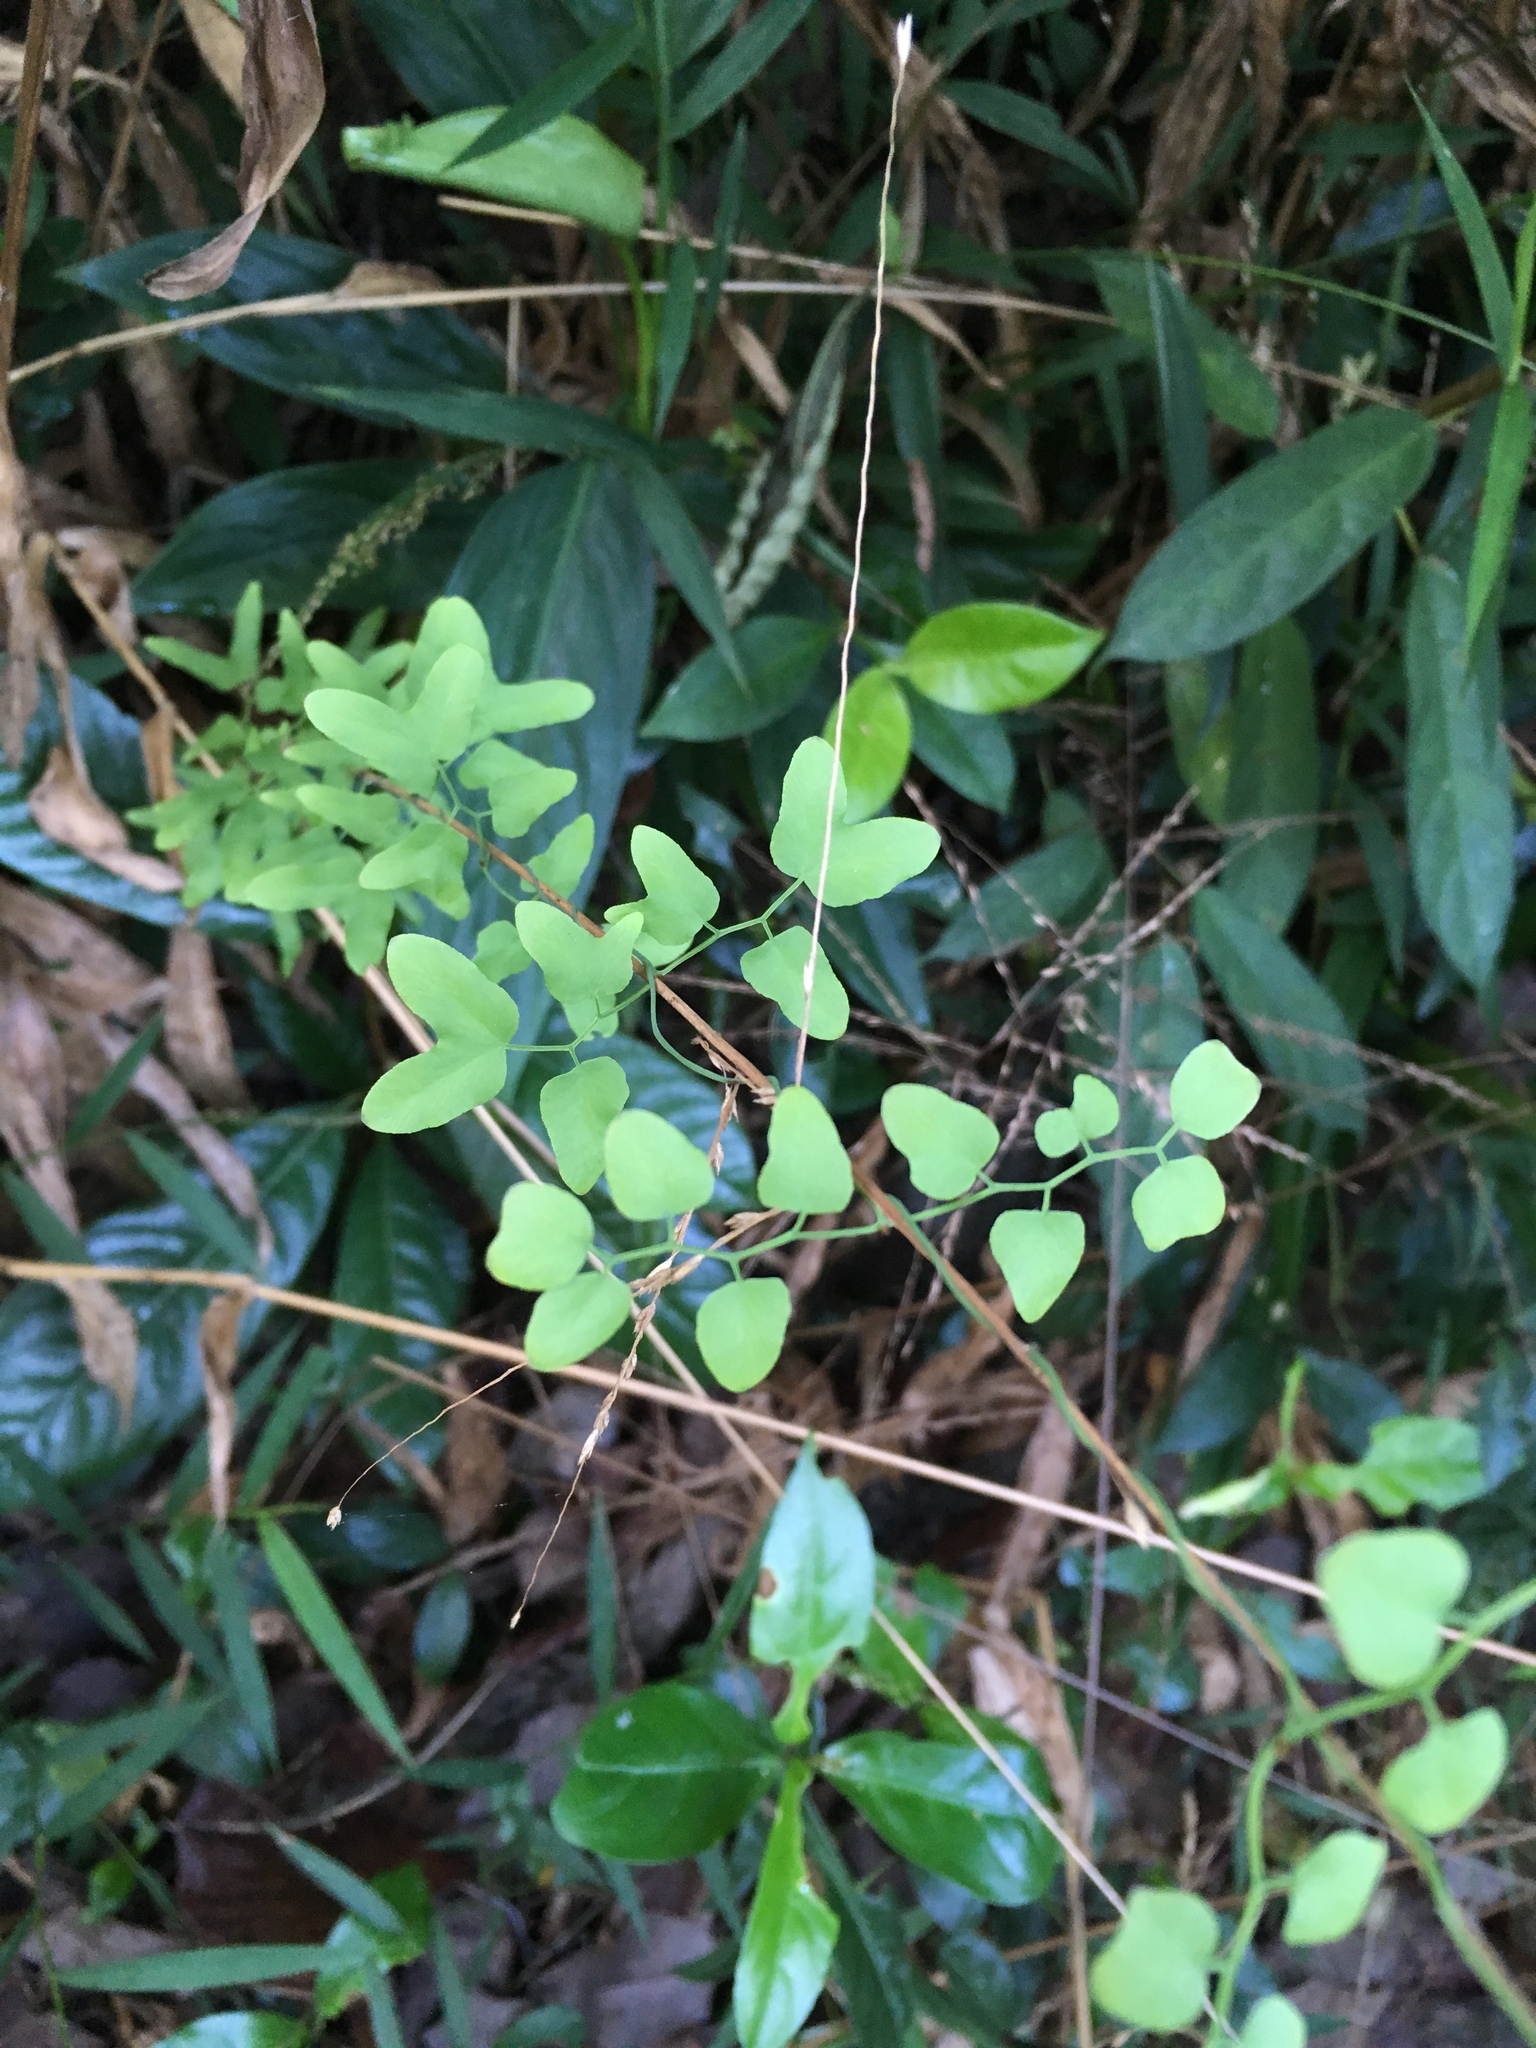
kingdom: Plantae
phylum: Tracheophyta
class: Polypodiopsida
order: Schizaeales
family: Lygodiaceae
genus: Lygodium
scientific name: Lygodium microphyllum
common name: Small-leaf climbing fern
